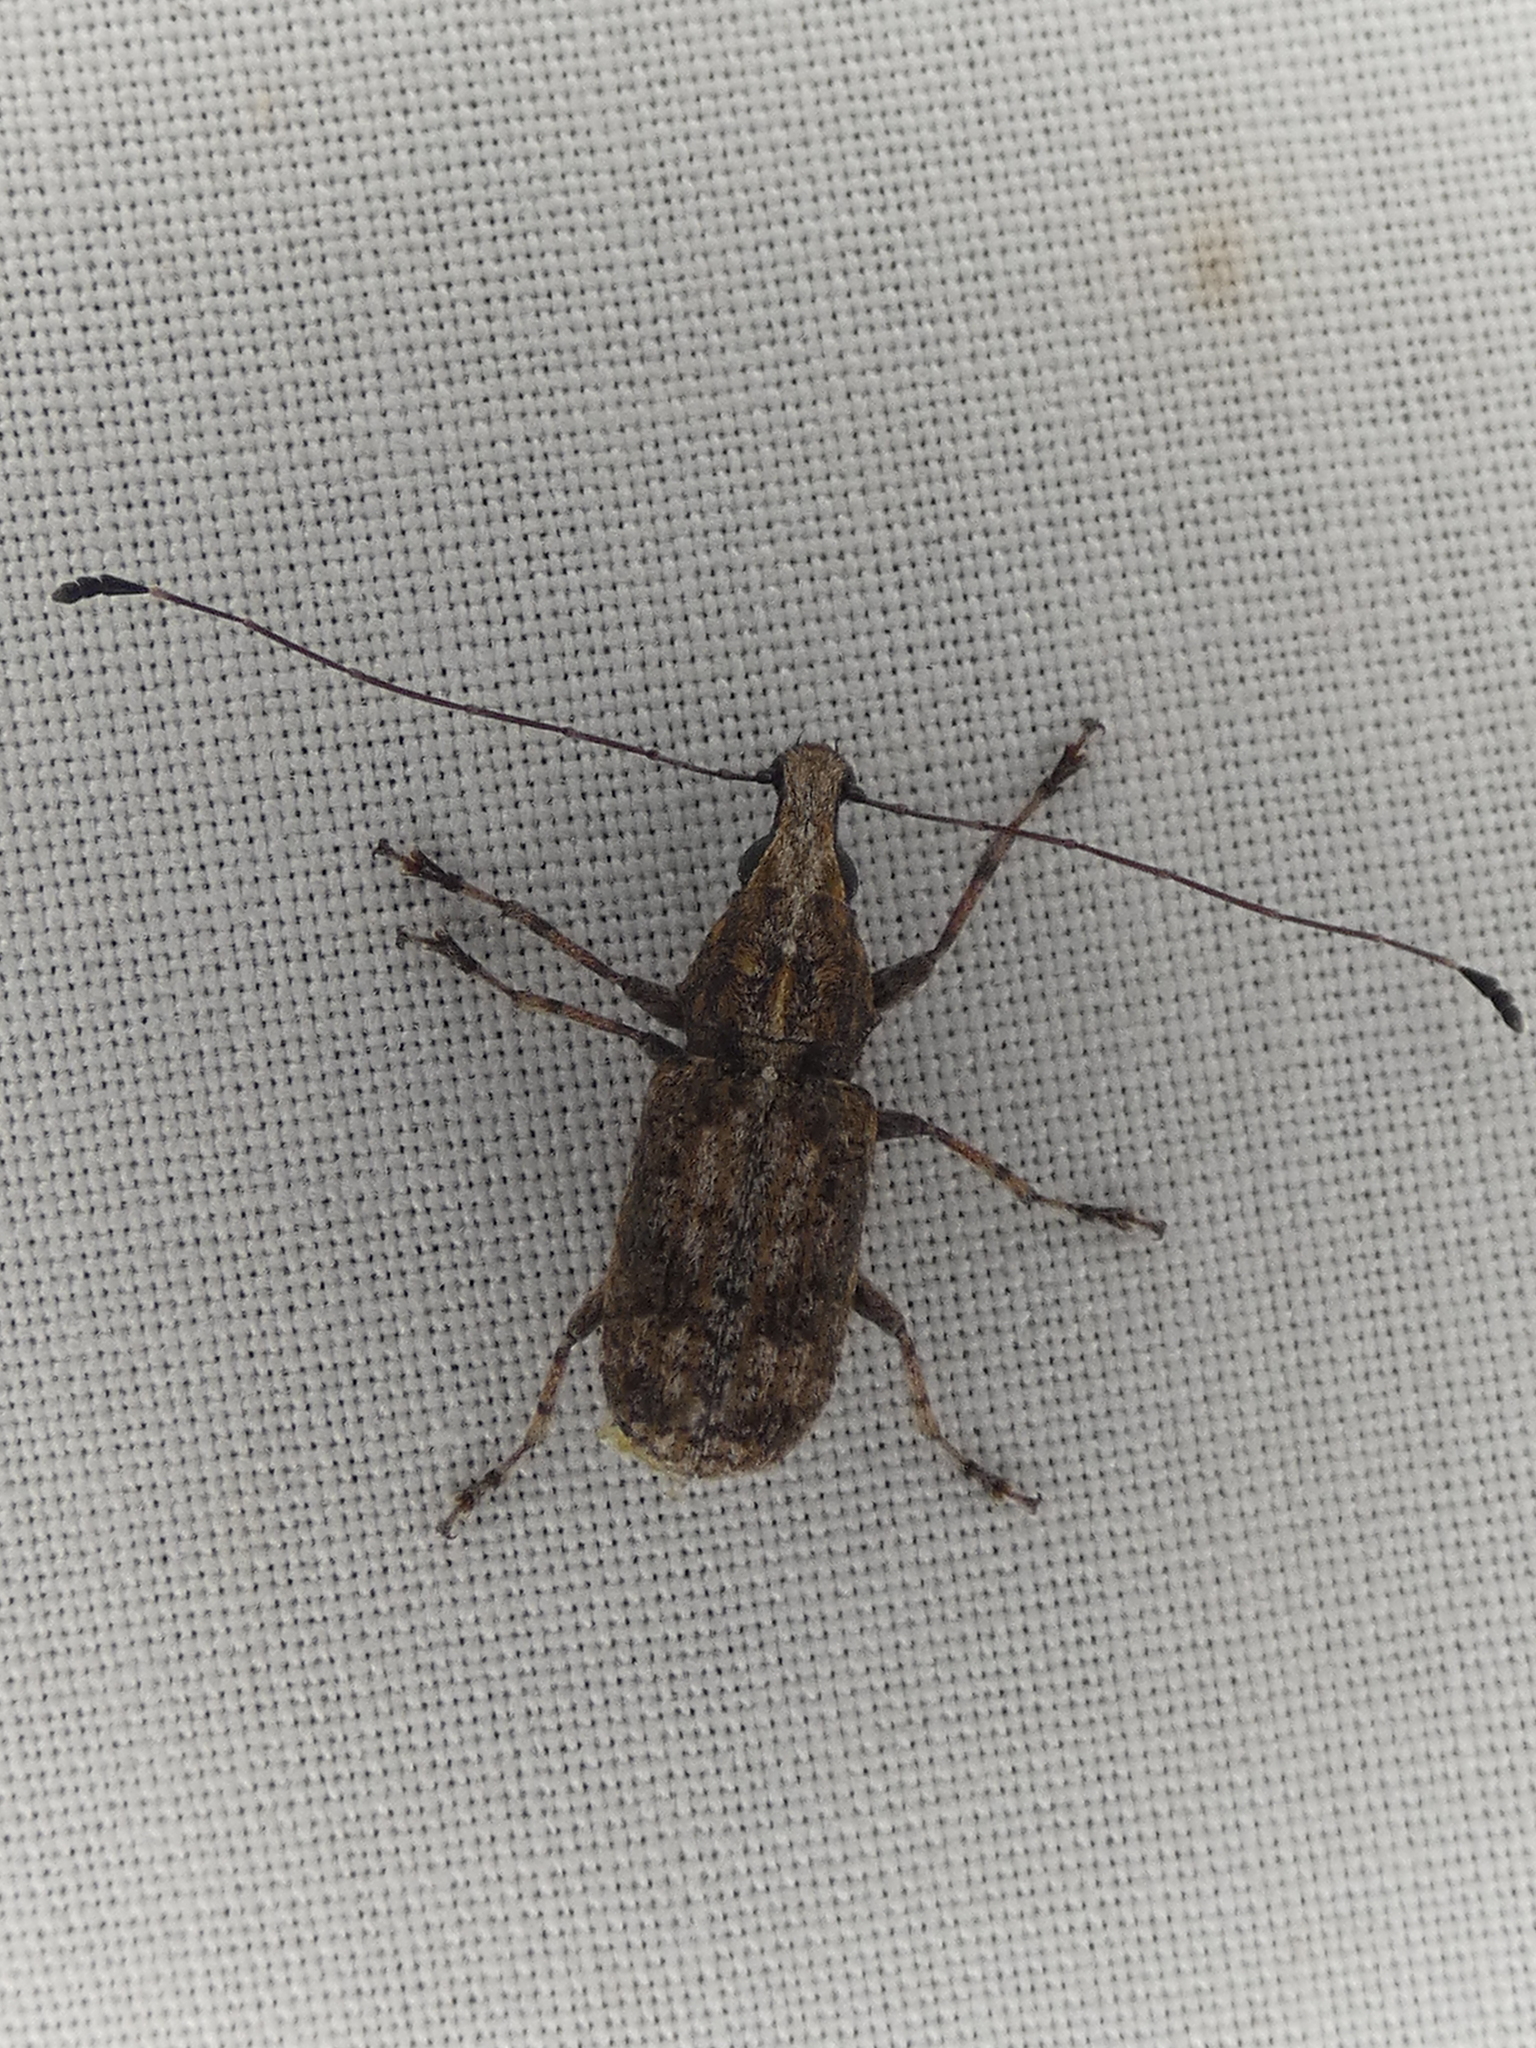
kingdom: Animalia
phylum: Arthropoda
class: Insecta
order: Coleoptera
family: Anthribidae
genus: Meconemus
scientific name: Meconemus infuscatus
